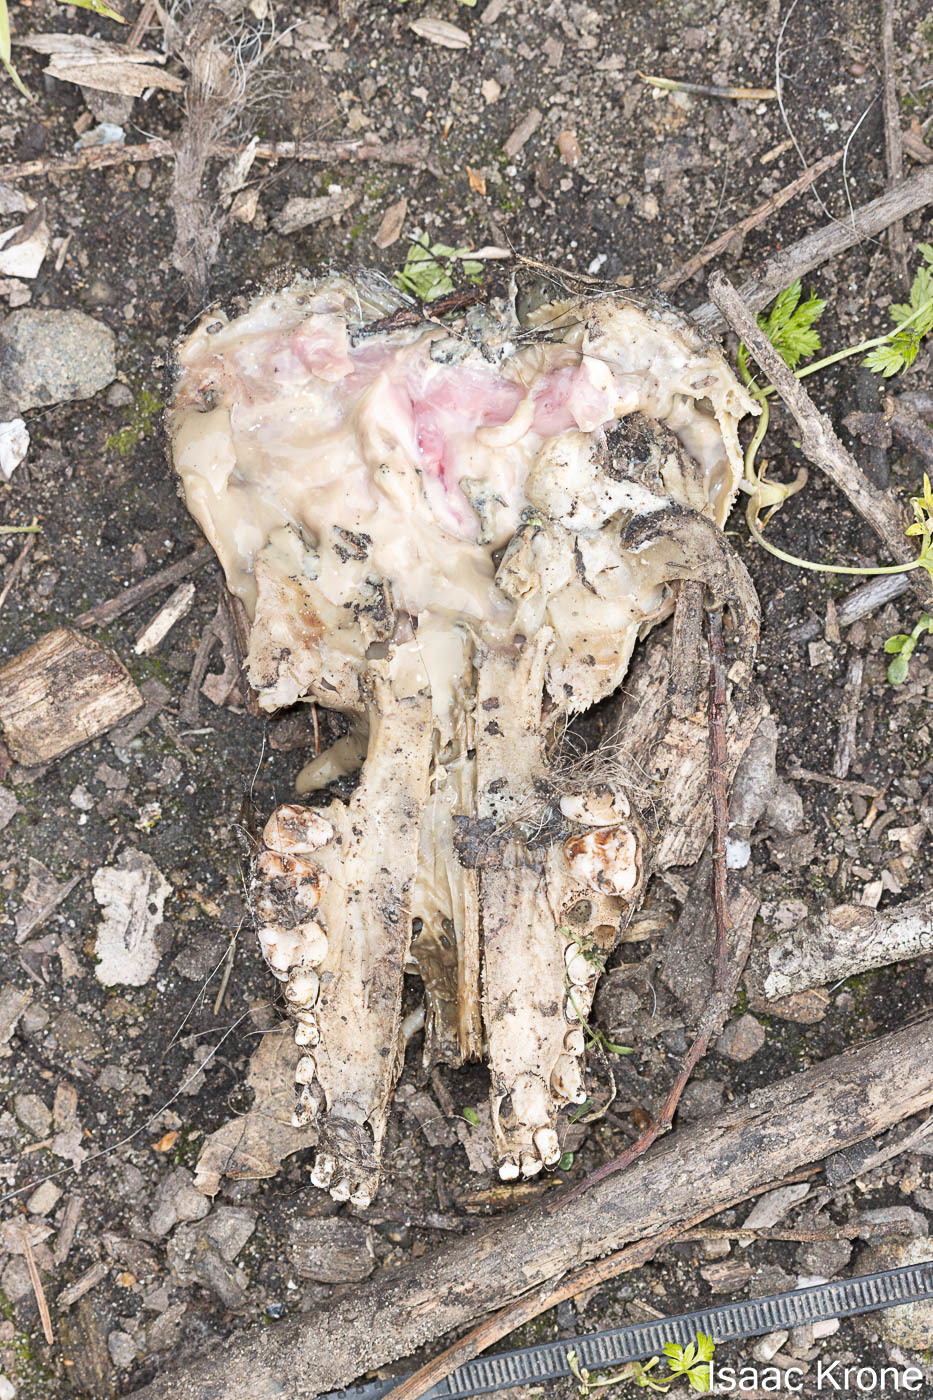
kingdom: Animalia
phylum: Chordata
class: Mammalia
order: Carnivora
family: Procyonidae
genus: Procyon
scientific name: Procyon lotor
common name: Raccoon
